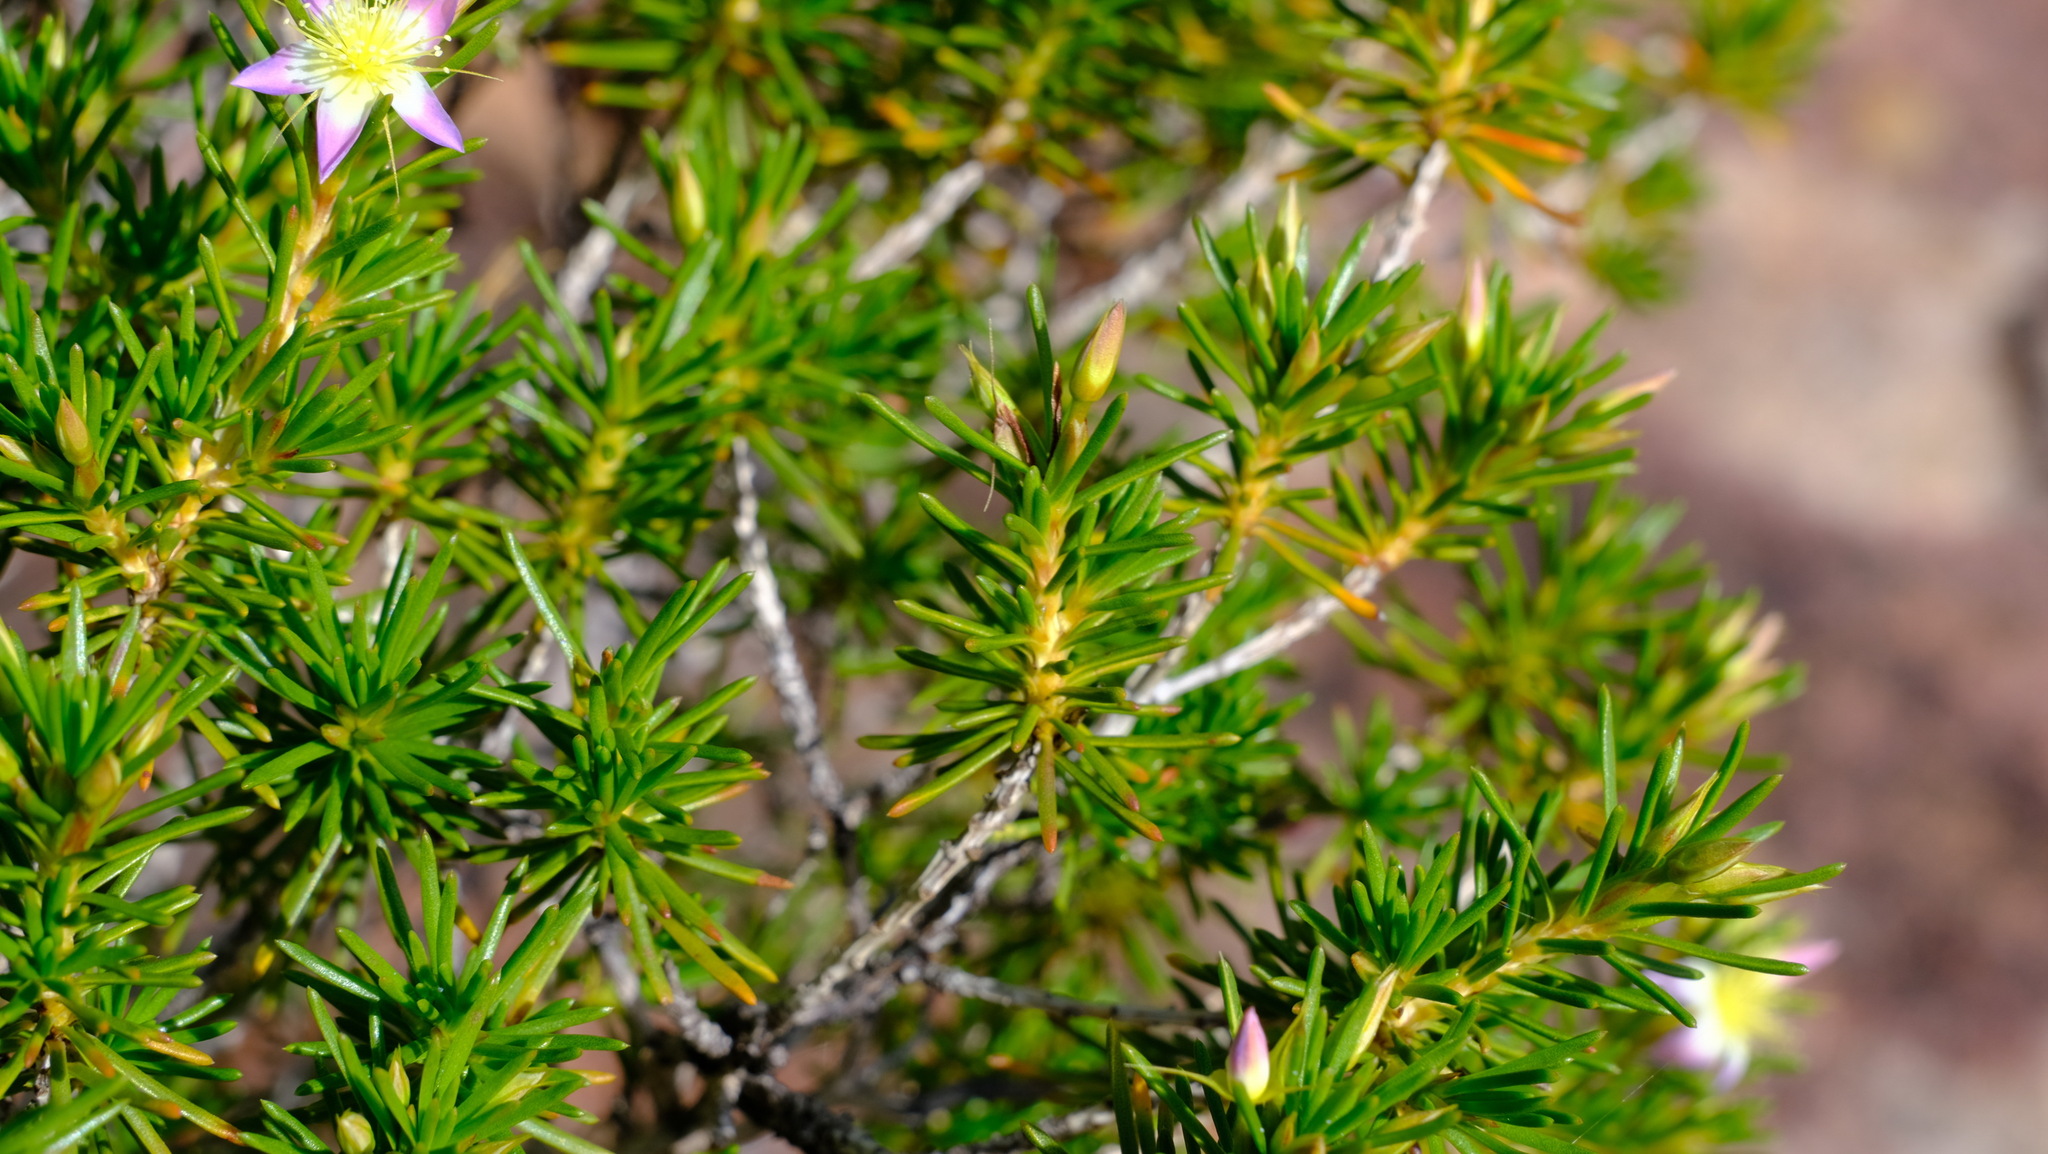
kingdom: Plantae
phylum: Tracheophyta
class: Magnoliopsida
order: Myrtales
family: Myrtaceae
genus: Calytrix
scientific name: Calytrix depressa
